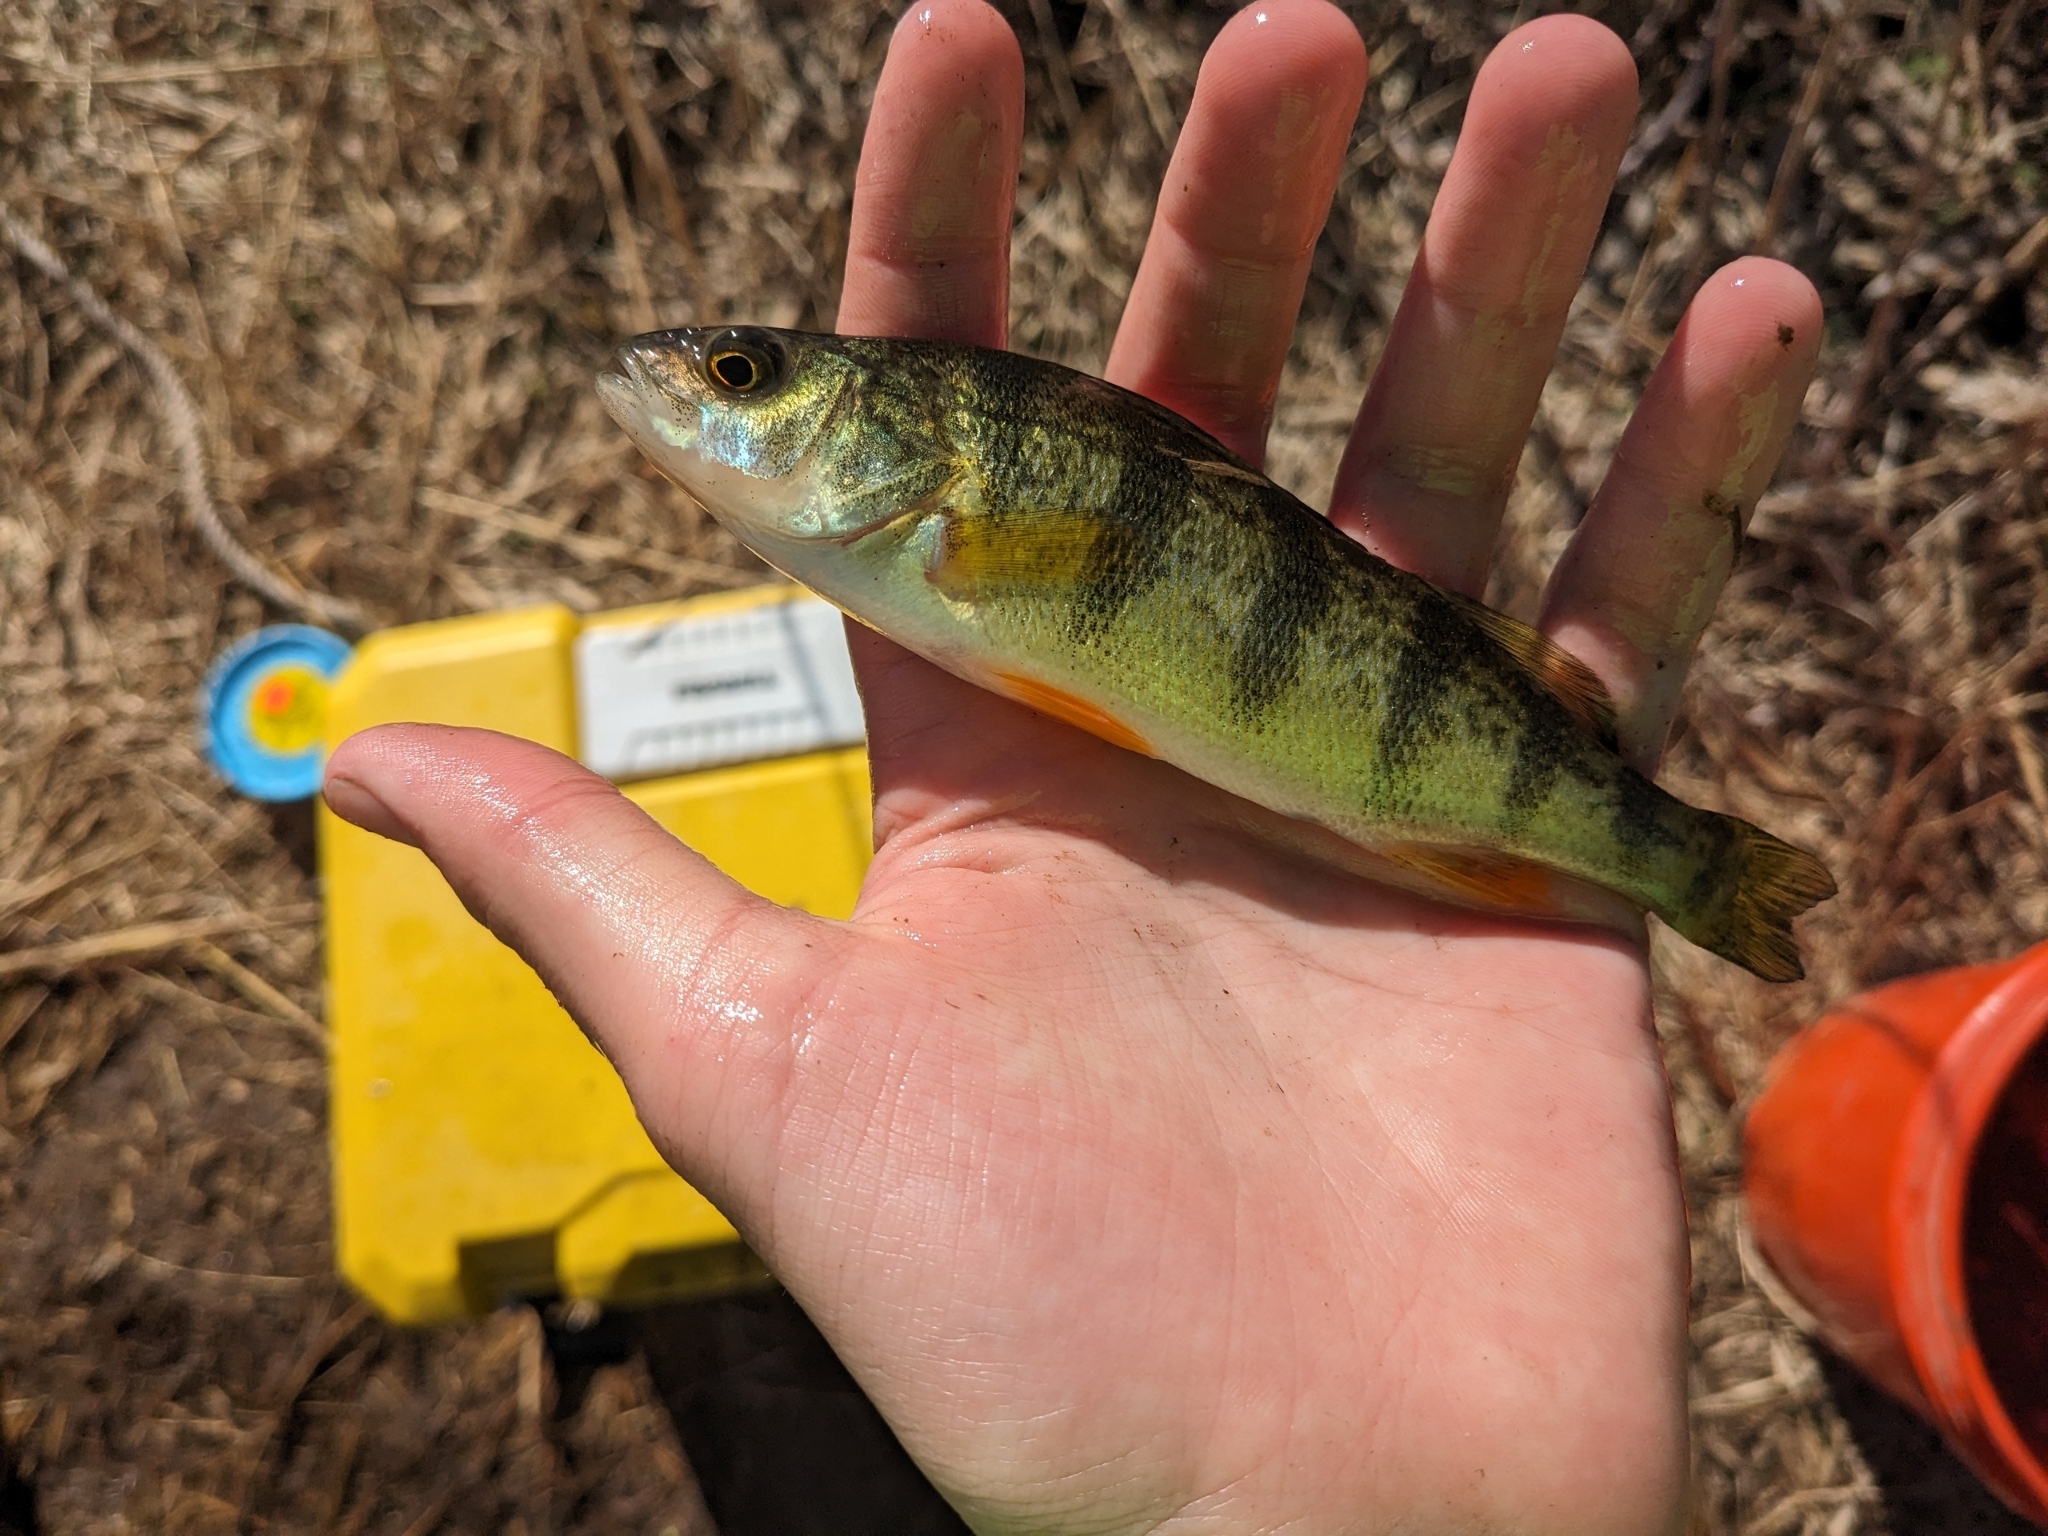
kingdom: Animalia
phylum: Chordata
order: Perciformes
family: Percidae
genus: Perca
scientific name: Perca flavescens
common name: Yellow perch
